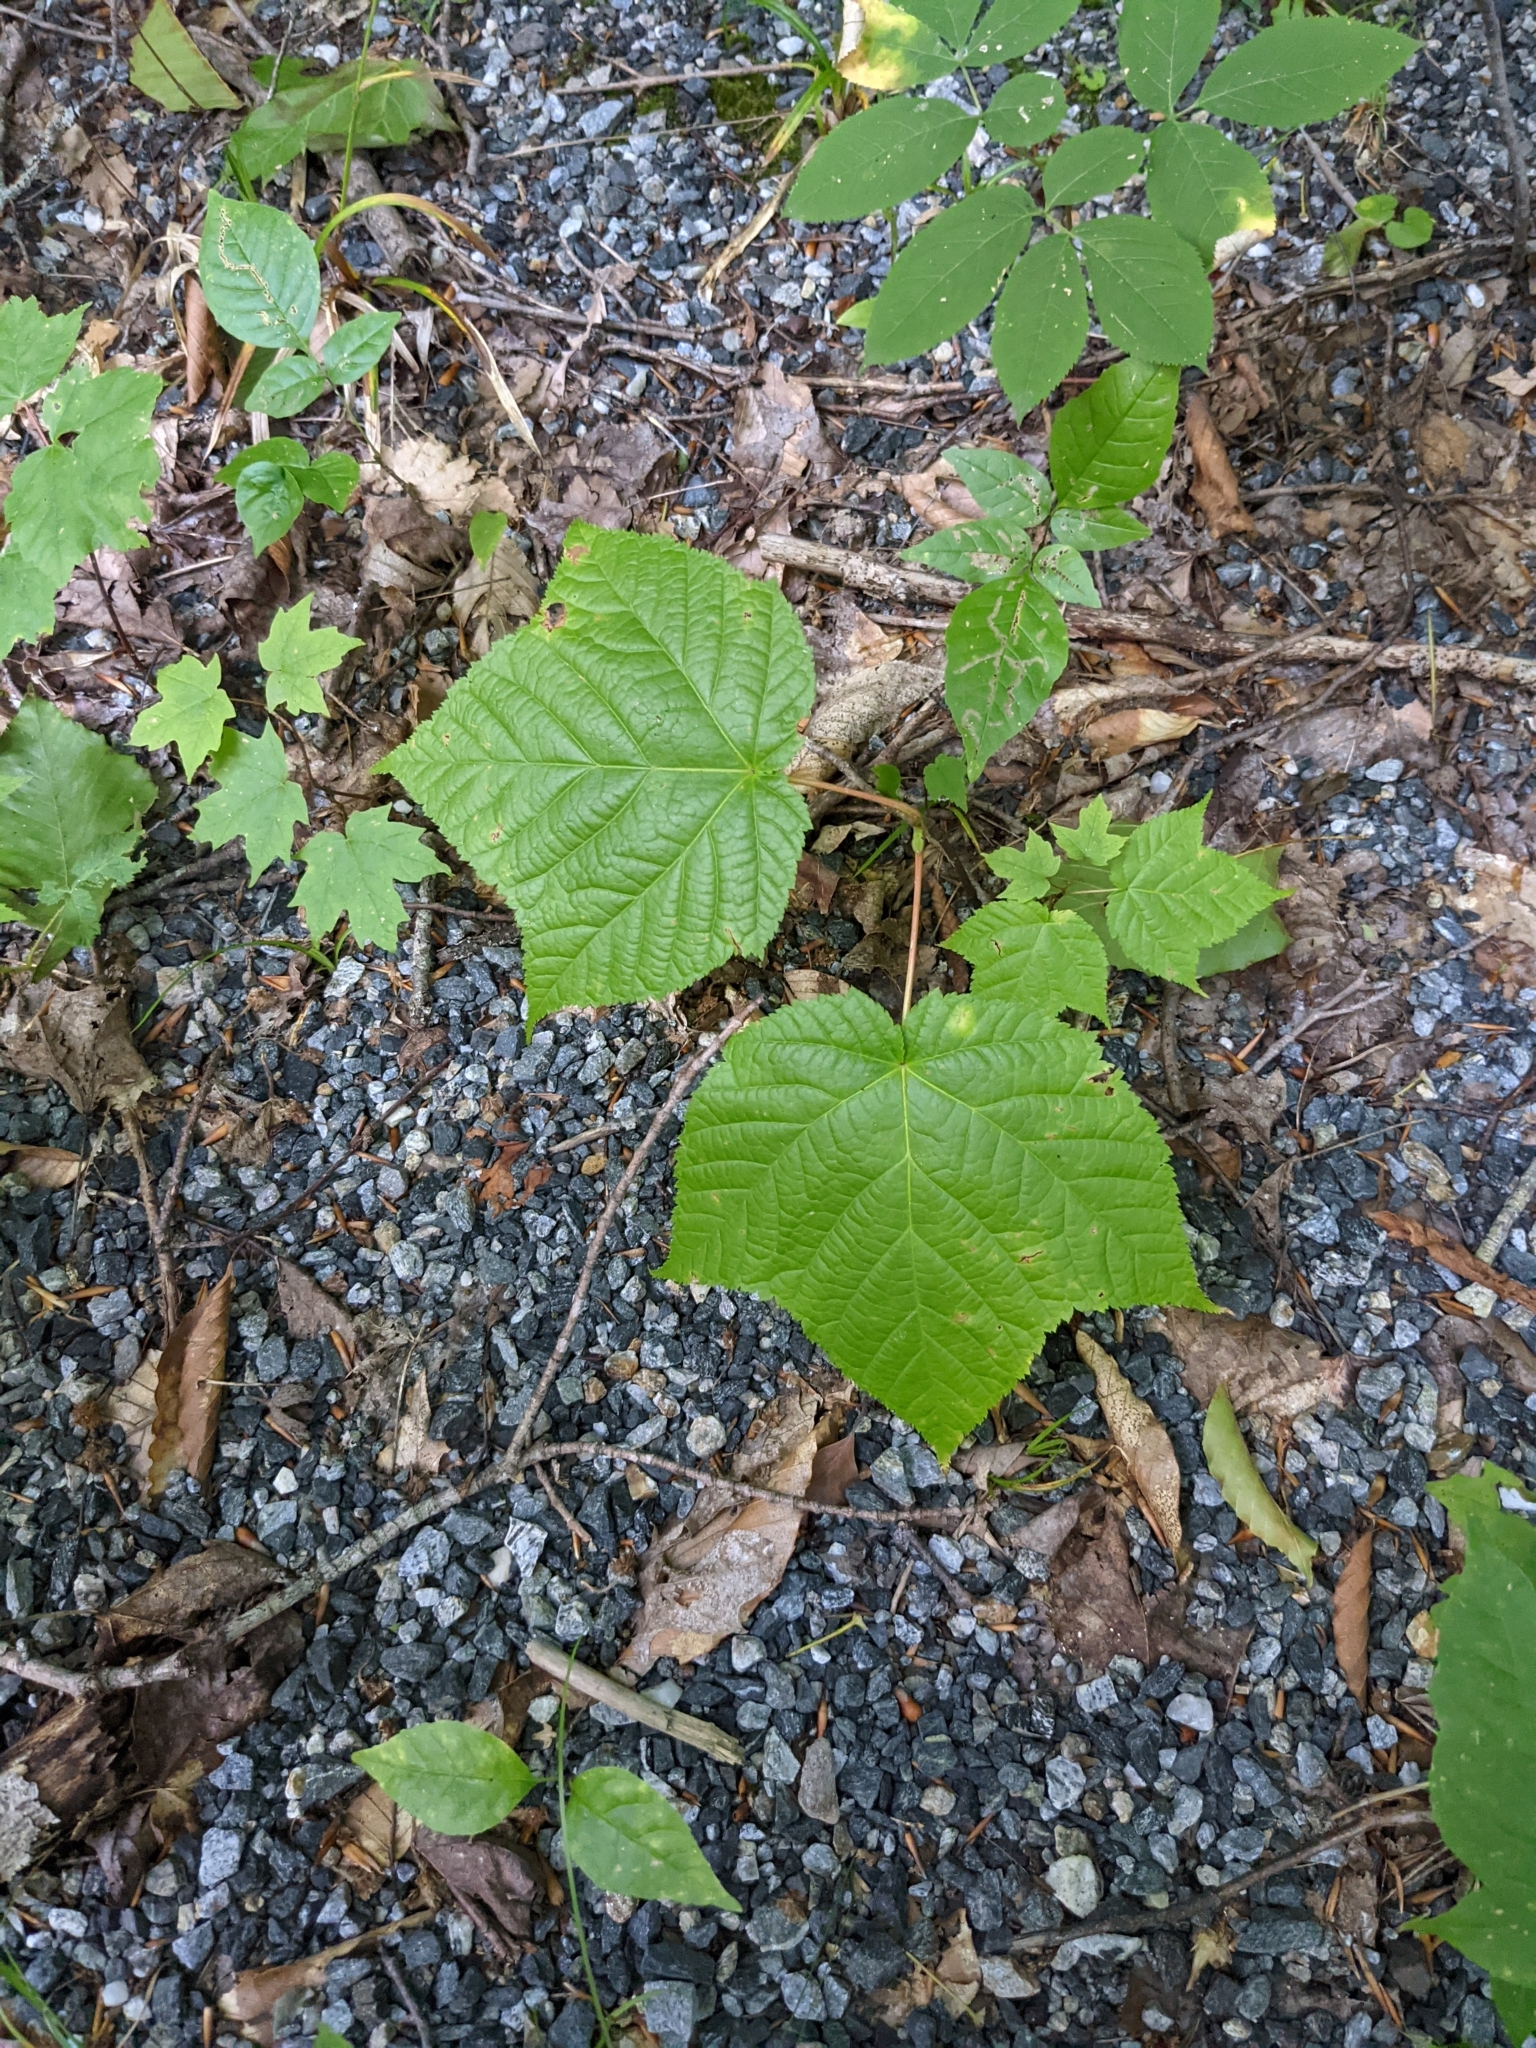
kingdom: Plantae
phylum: Tracheophyta
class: Magnoliopsida
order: Sapindales
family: Sapindaceae
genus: Acer
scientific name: Acer pensylvanicum
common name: Moosewood
